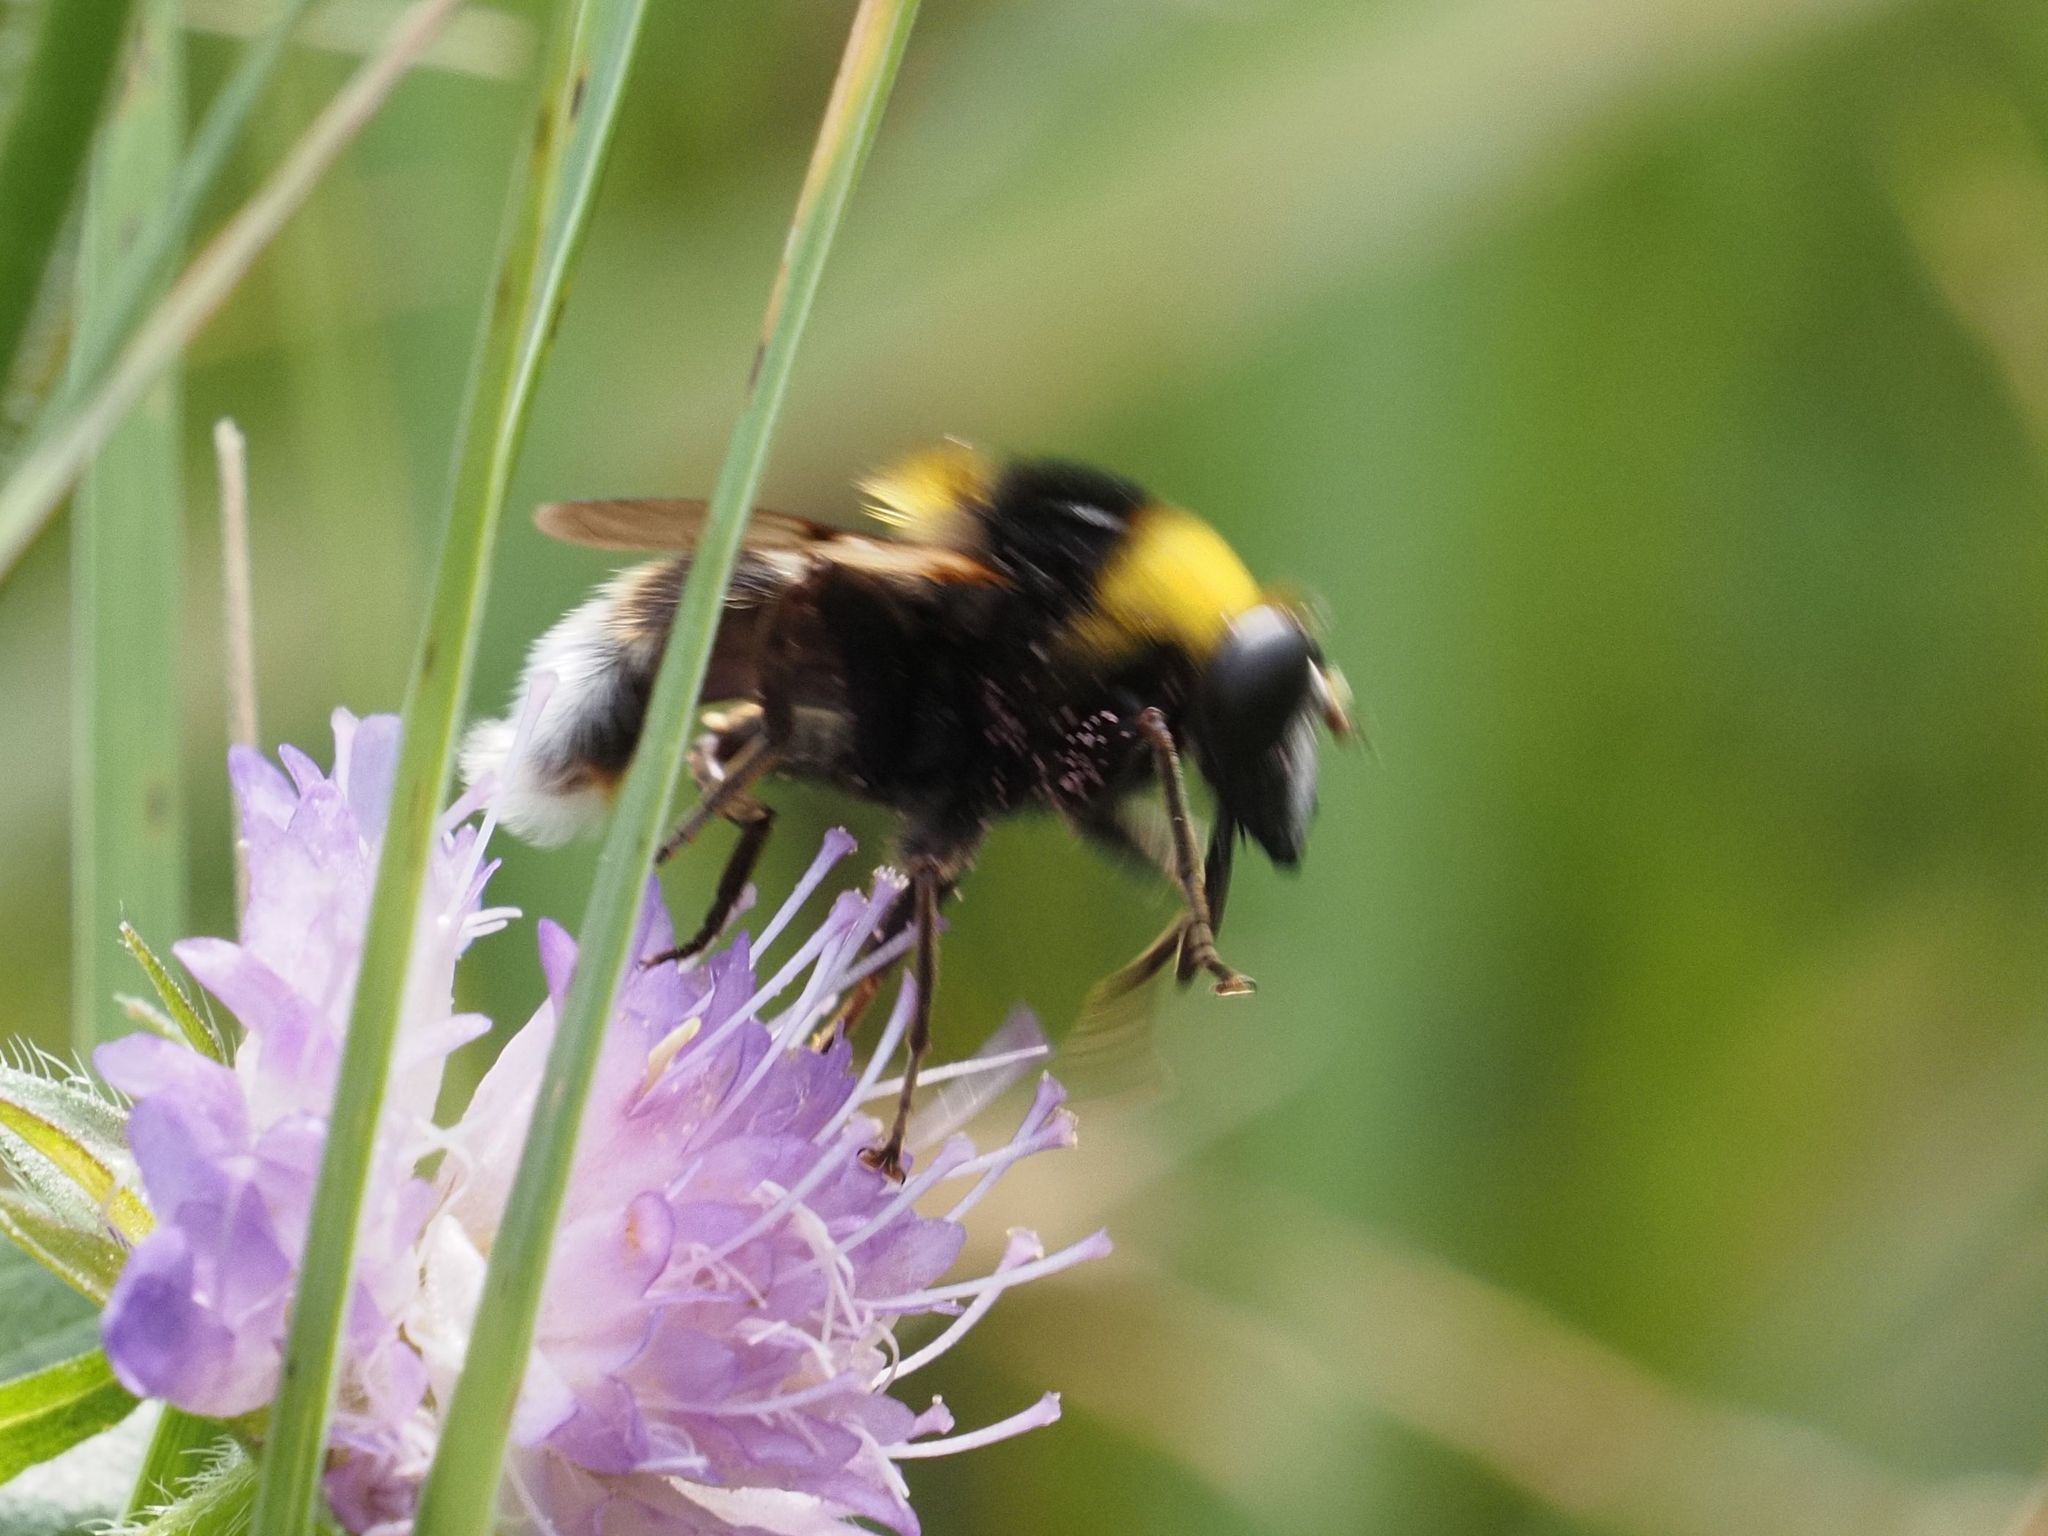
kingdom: Animalia
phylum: Arthropoda
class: Insecta
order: Diptera
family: Syrphidae
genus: Sericomyia
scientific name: Sericomyia bombiformis
